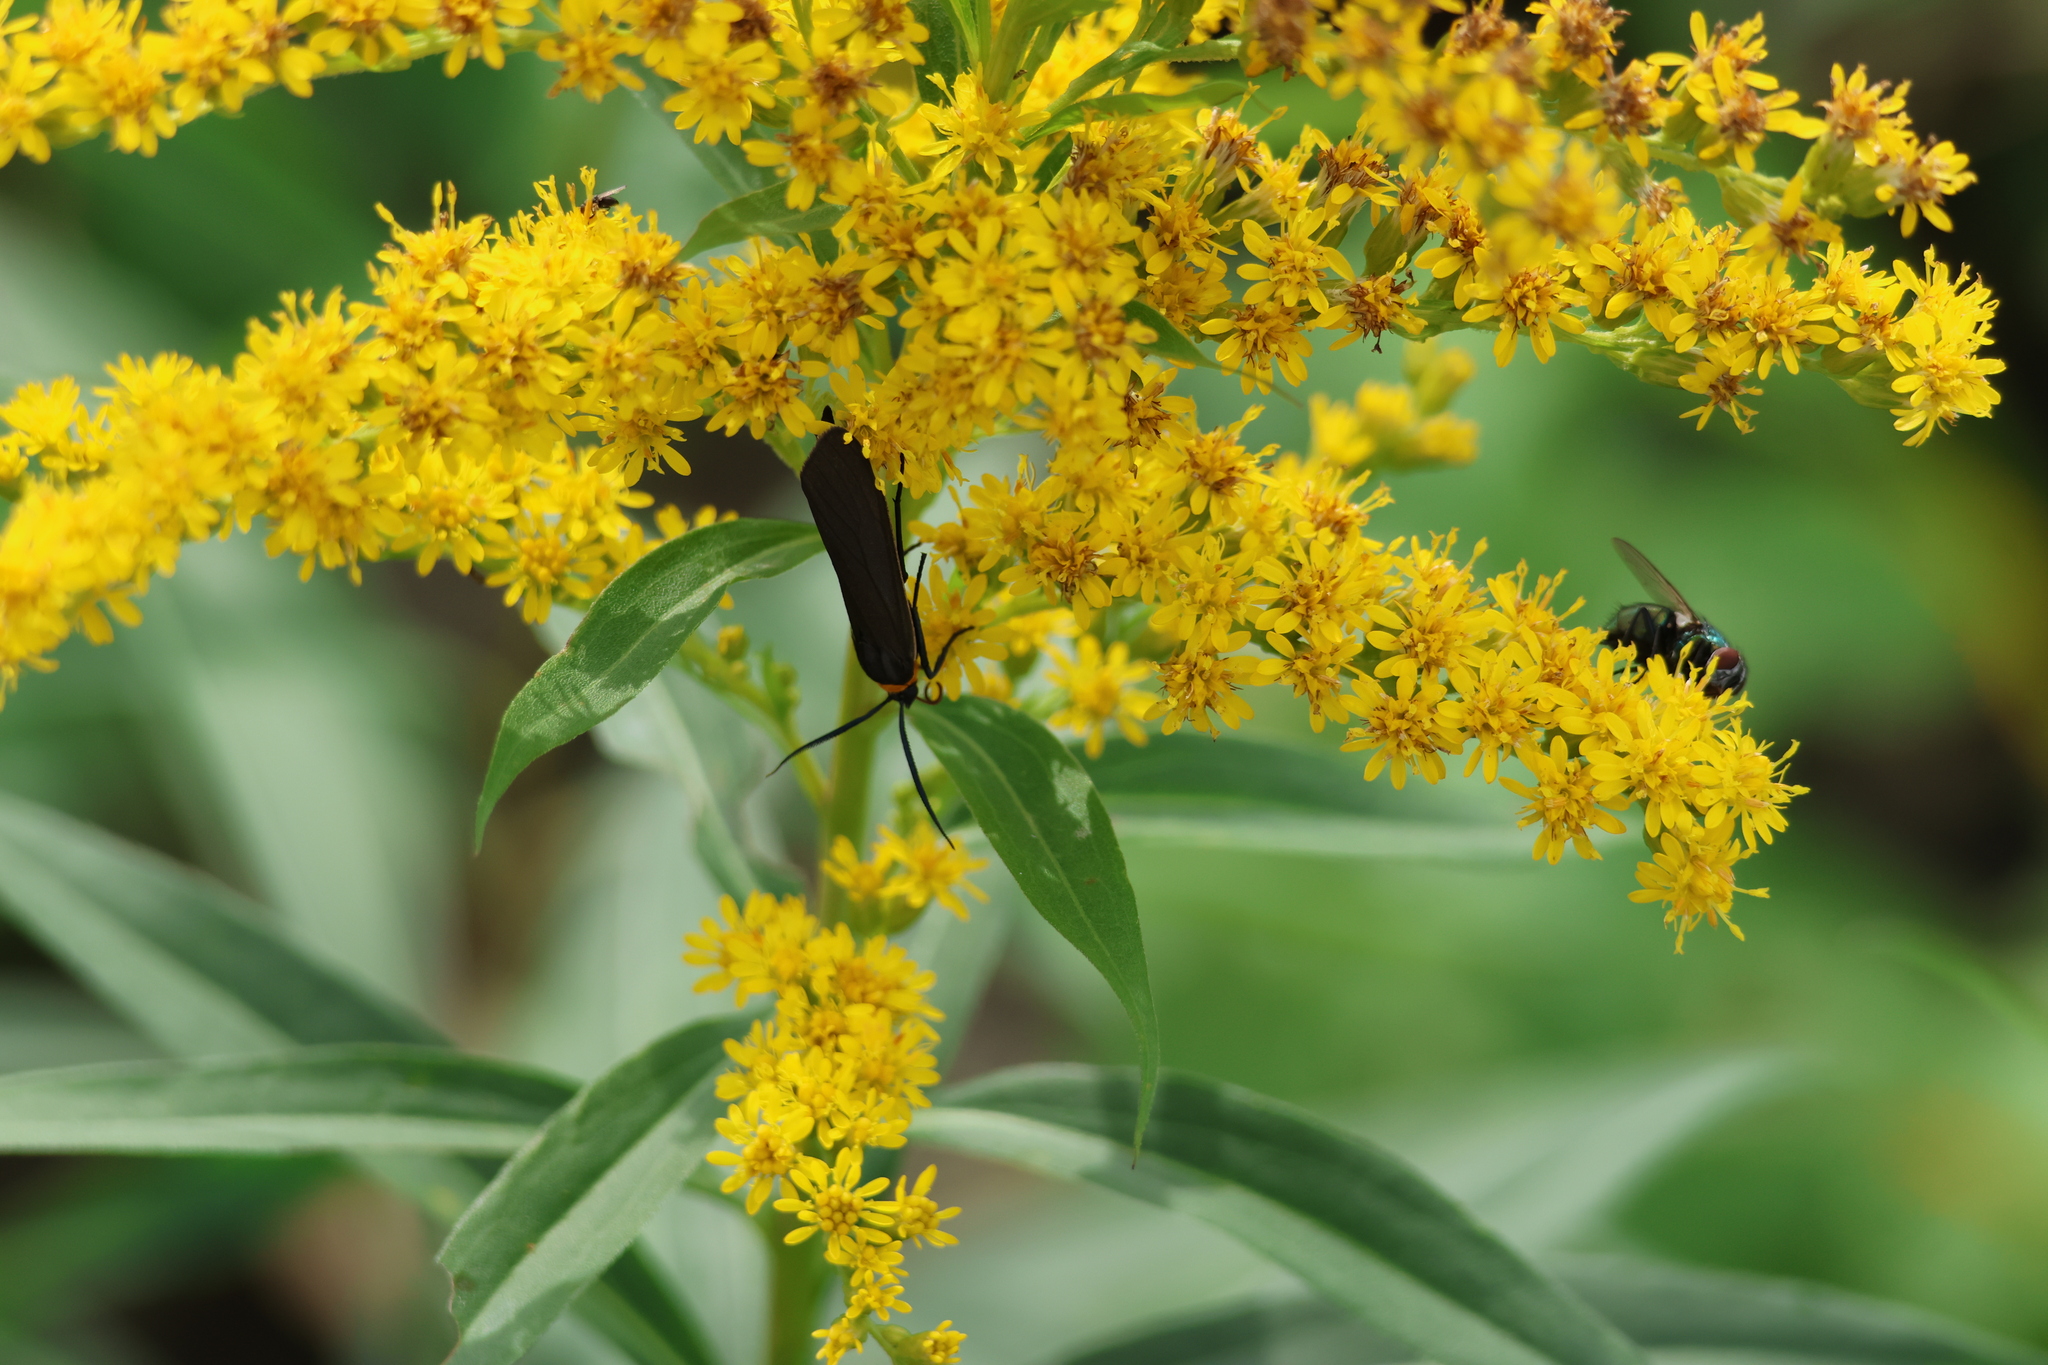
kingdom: Animalia
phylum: Arthropoda
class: Insecta
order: Lepidoptera
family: Erebidae
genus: Cisseps
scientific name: Cisseps fulvicollis
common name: Yellow-collared scape moth
